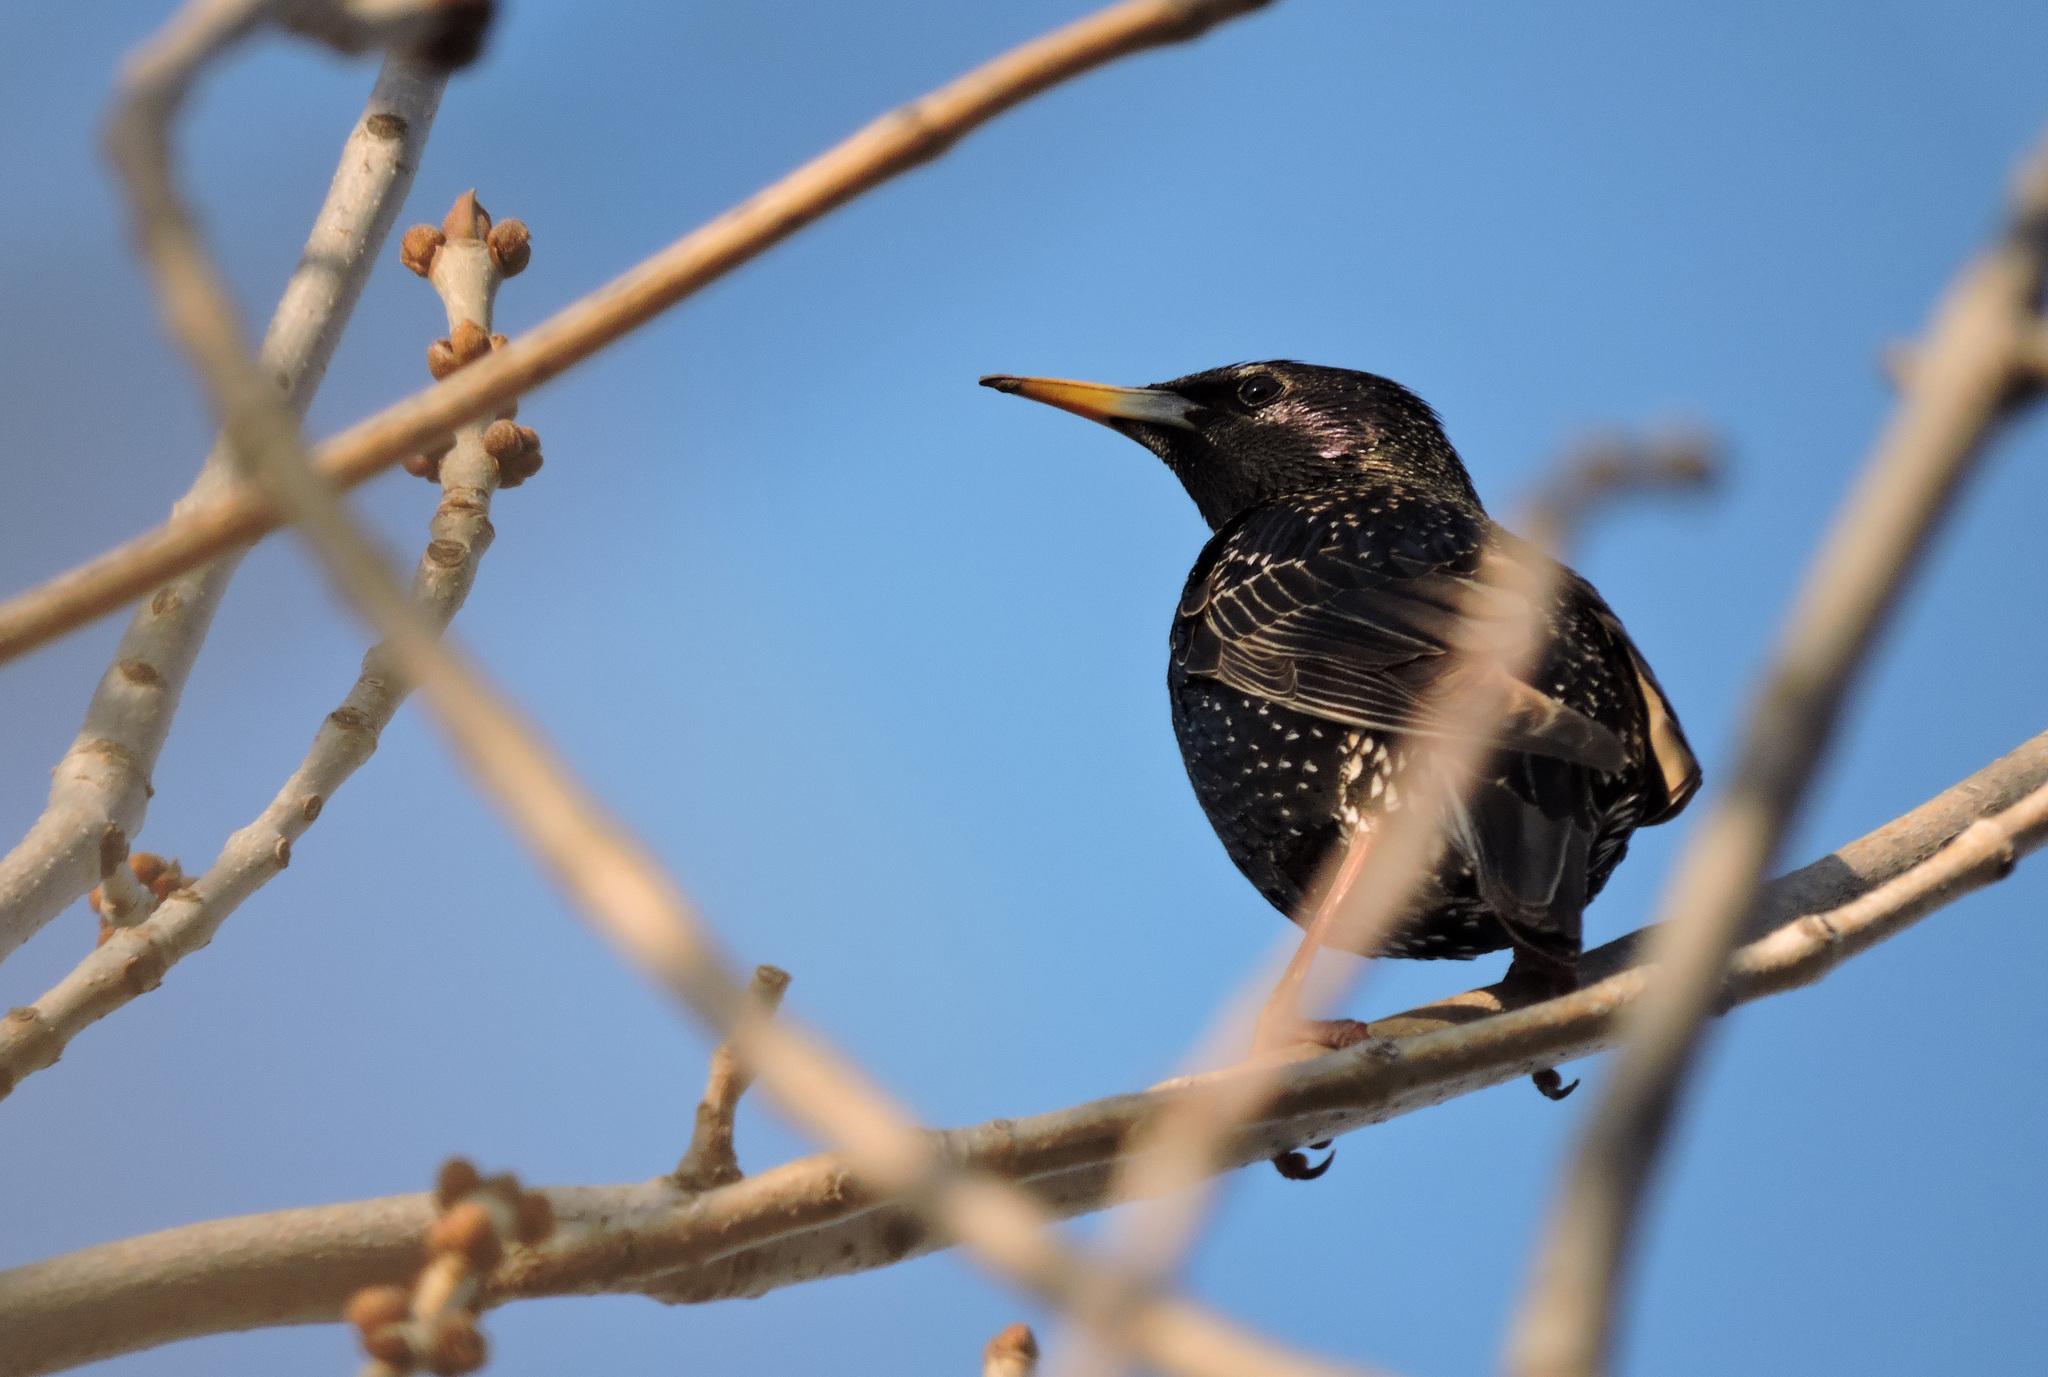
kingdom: Animalia
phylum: Chordata
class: Aves
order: Passeriformes
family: Sturnidae
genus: Sturnus
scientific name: Sturnus vulgaris
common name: Common starling
